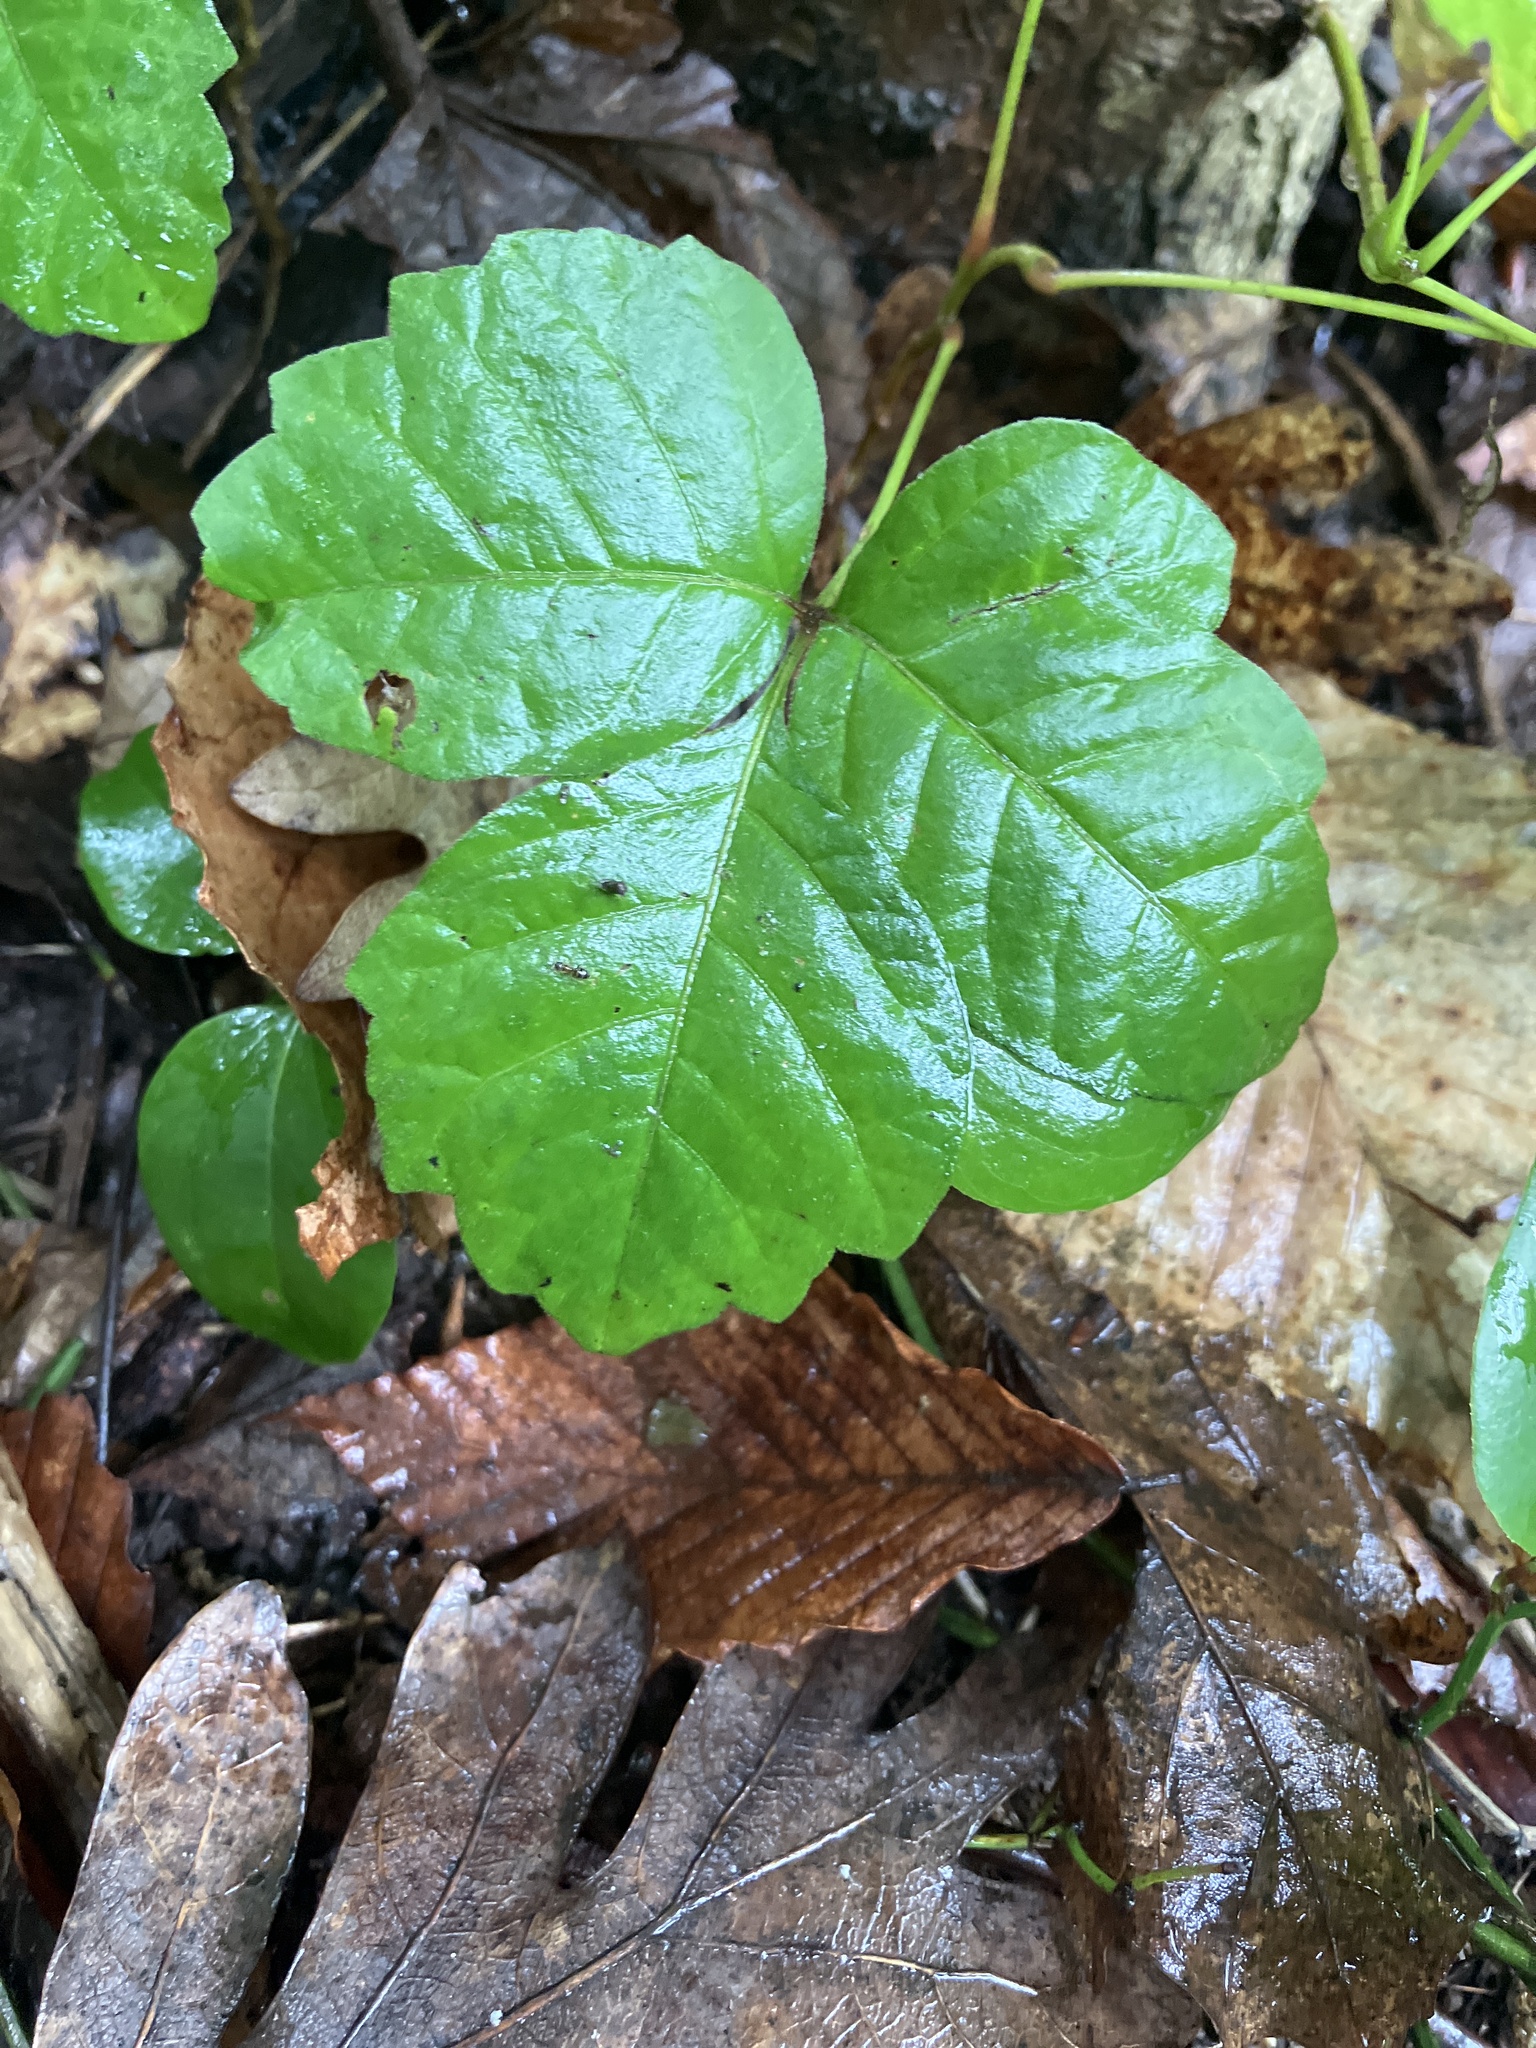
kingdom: Plantae
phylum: Tracheophyta
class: Magnoliopsida
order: Sapindales
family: Anacardiaceae
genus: Toxicodendron
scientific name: Toxicodendron radicans
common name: Poison ivy
